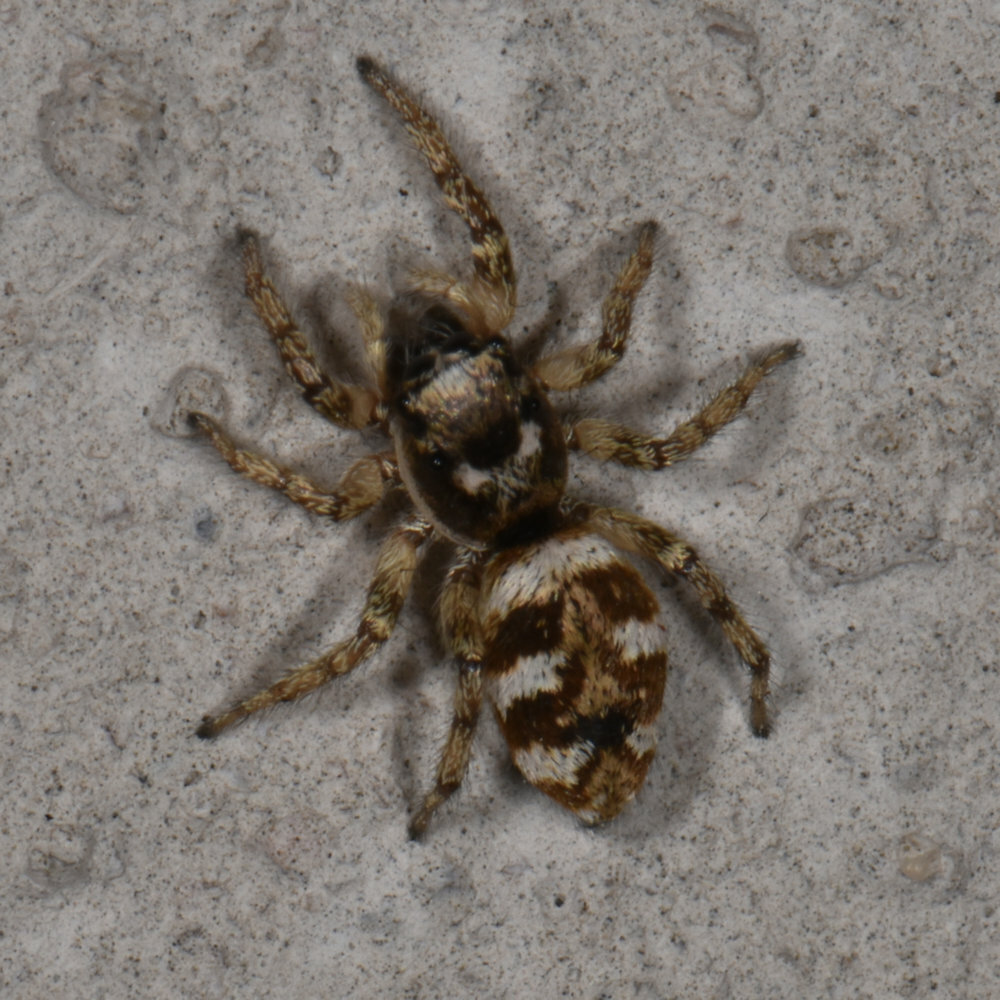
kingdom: Animalia
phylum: Arthropoda
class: Arachnida
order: Araneae
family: Salticidae
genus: Salticus
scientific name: Salticus scenicus
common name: Zebra jumper
